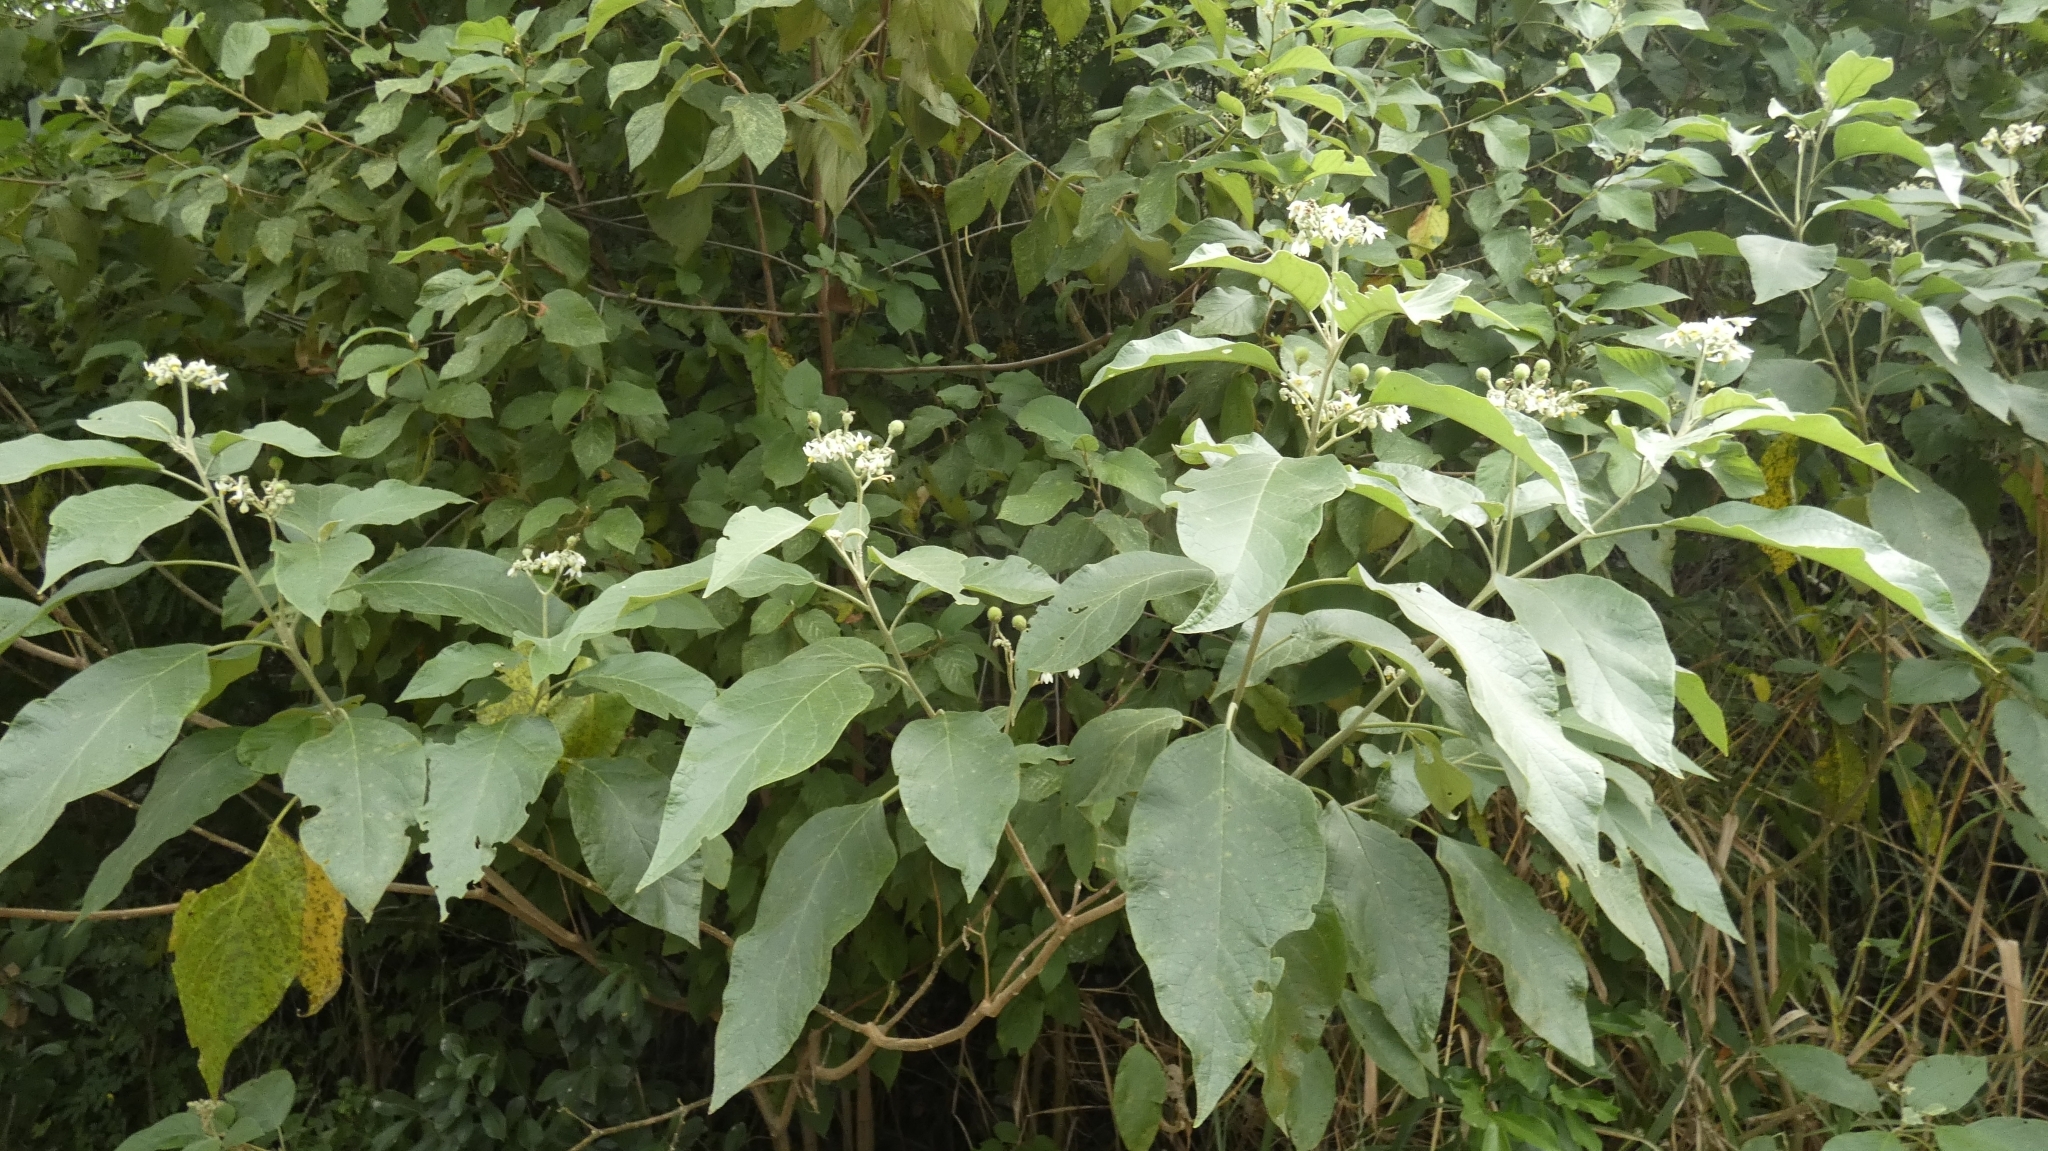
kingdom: Plantae
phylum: Tracheophyta
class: Magnoliopsida
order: Solanales
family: Solanaceae
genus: Solanum
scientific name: Solanum erianthum
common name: Tobacco-tree
